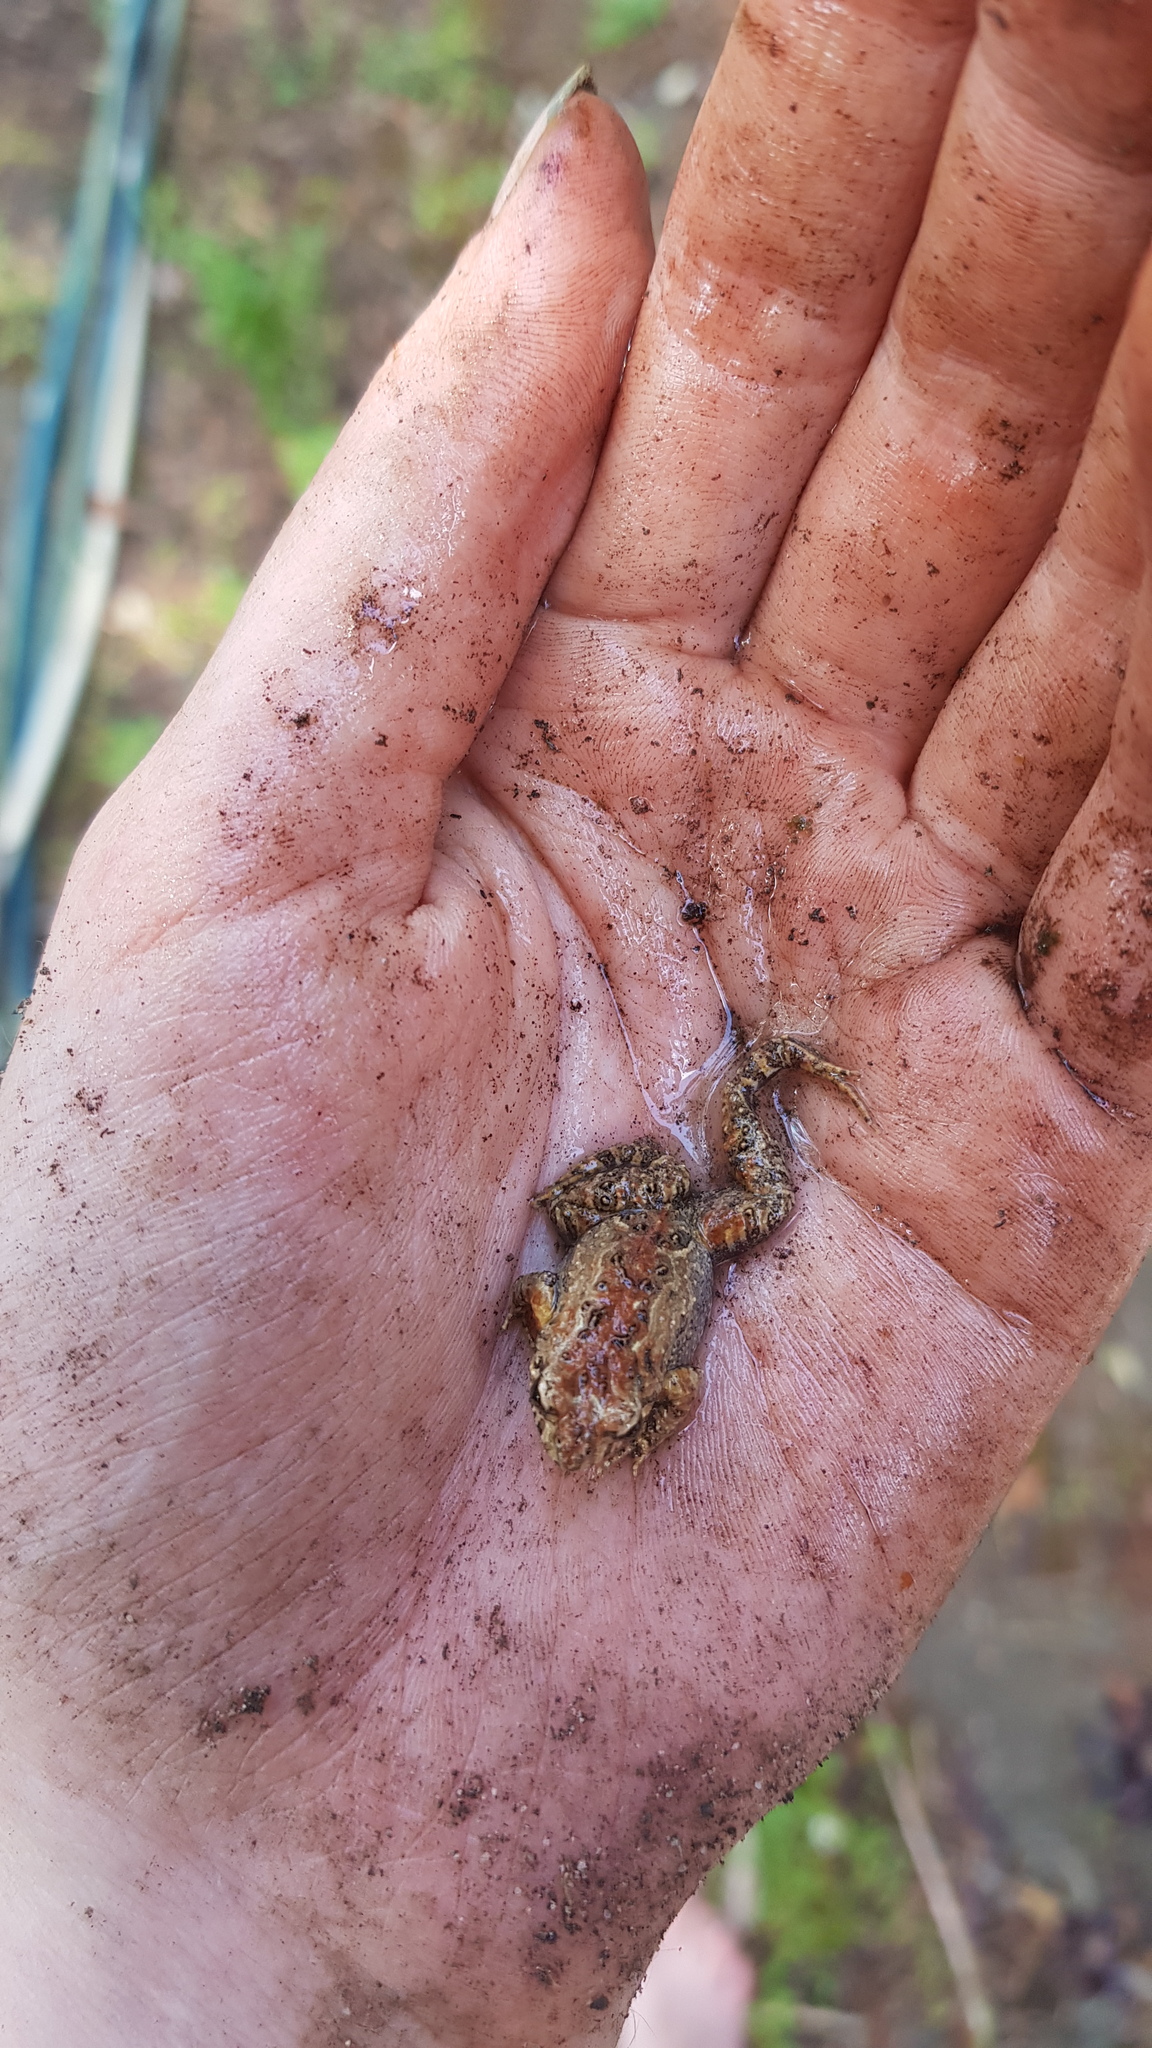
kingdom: Animalia
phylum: Chordata
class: Amphibia
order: Anura
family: Myobatrachidae
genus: Crinia
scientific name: Crinia signifera
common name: Brown froglet
